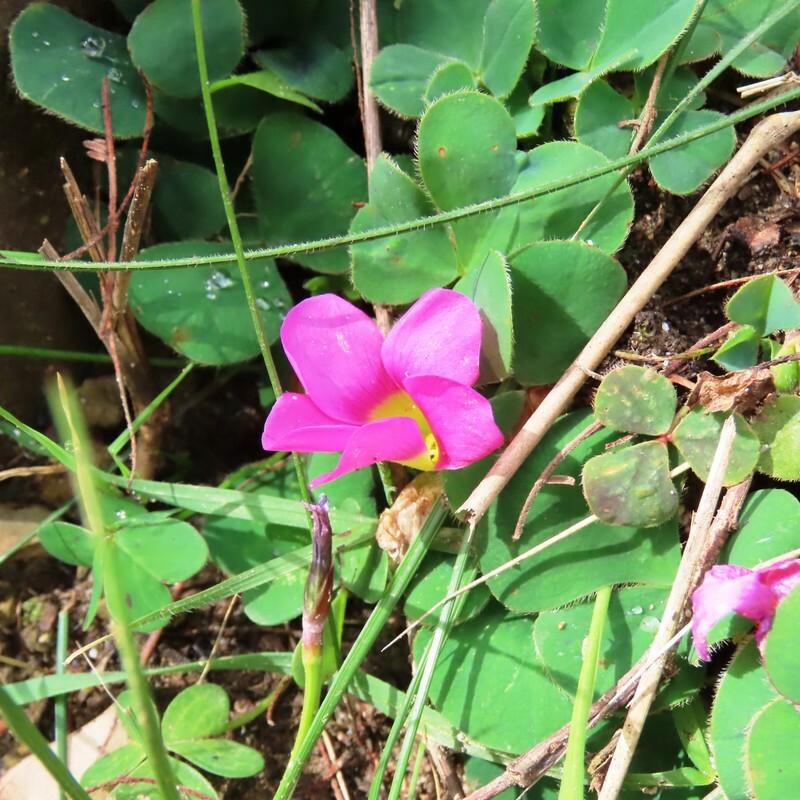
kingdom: Plantae
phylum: Tracheophyta
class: Magnoliopsida
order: Oxalidales
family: Oxalidaceae
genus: Oxalis
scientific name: Oxalis purpurea
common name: Purple woodsorrel
